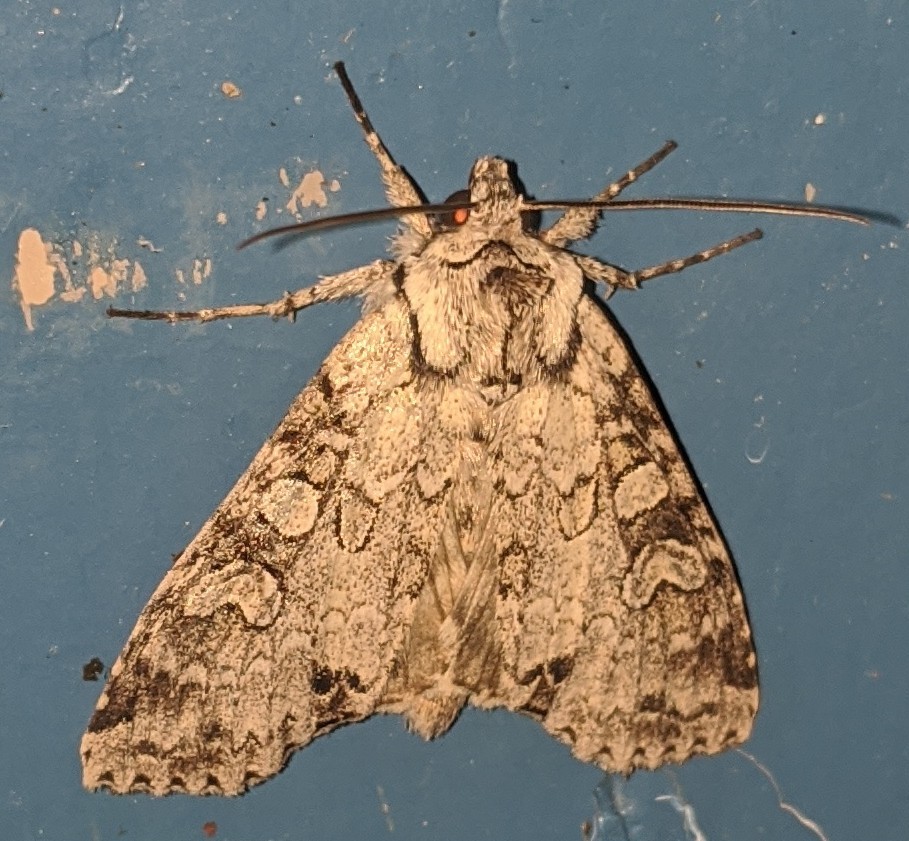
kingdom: Animalia
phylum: Arthropoda
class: Insecta
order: Lepidoptera
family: Noctuidae
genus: Polia
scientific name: Polia nimbosa
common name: Stormy arches
